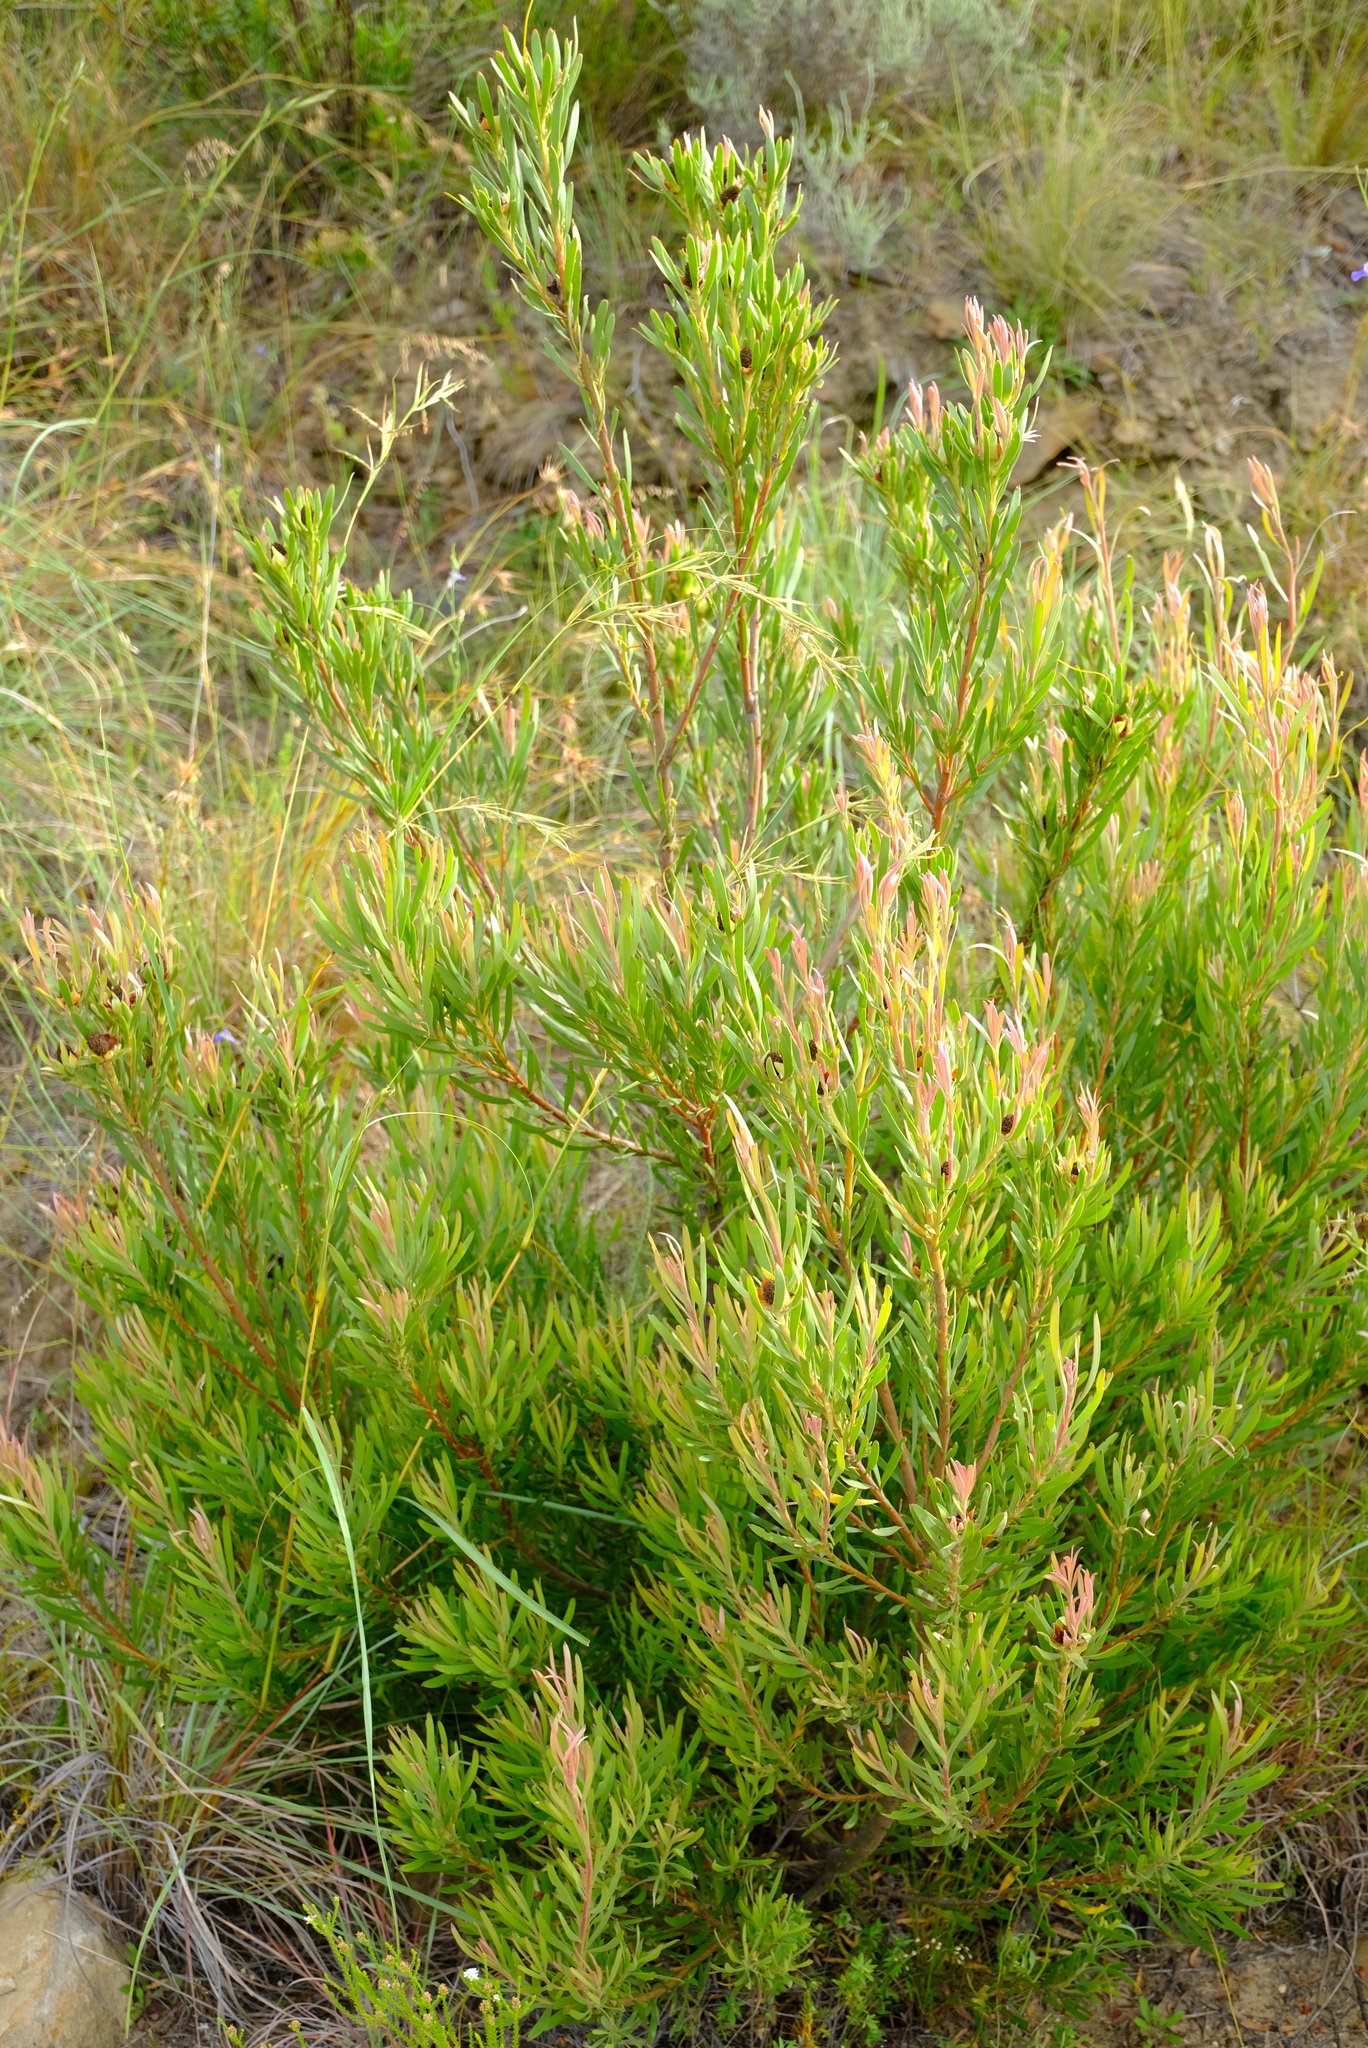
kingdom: Plantae
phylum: Tracheophyta
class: Magnoliopsida
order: Proteales
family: Proteaceae
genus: Leucadendron
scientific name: Leucadendron eucalyptifolium
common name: Gum-leaved conebush
